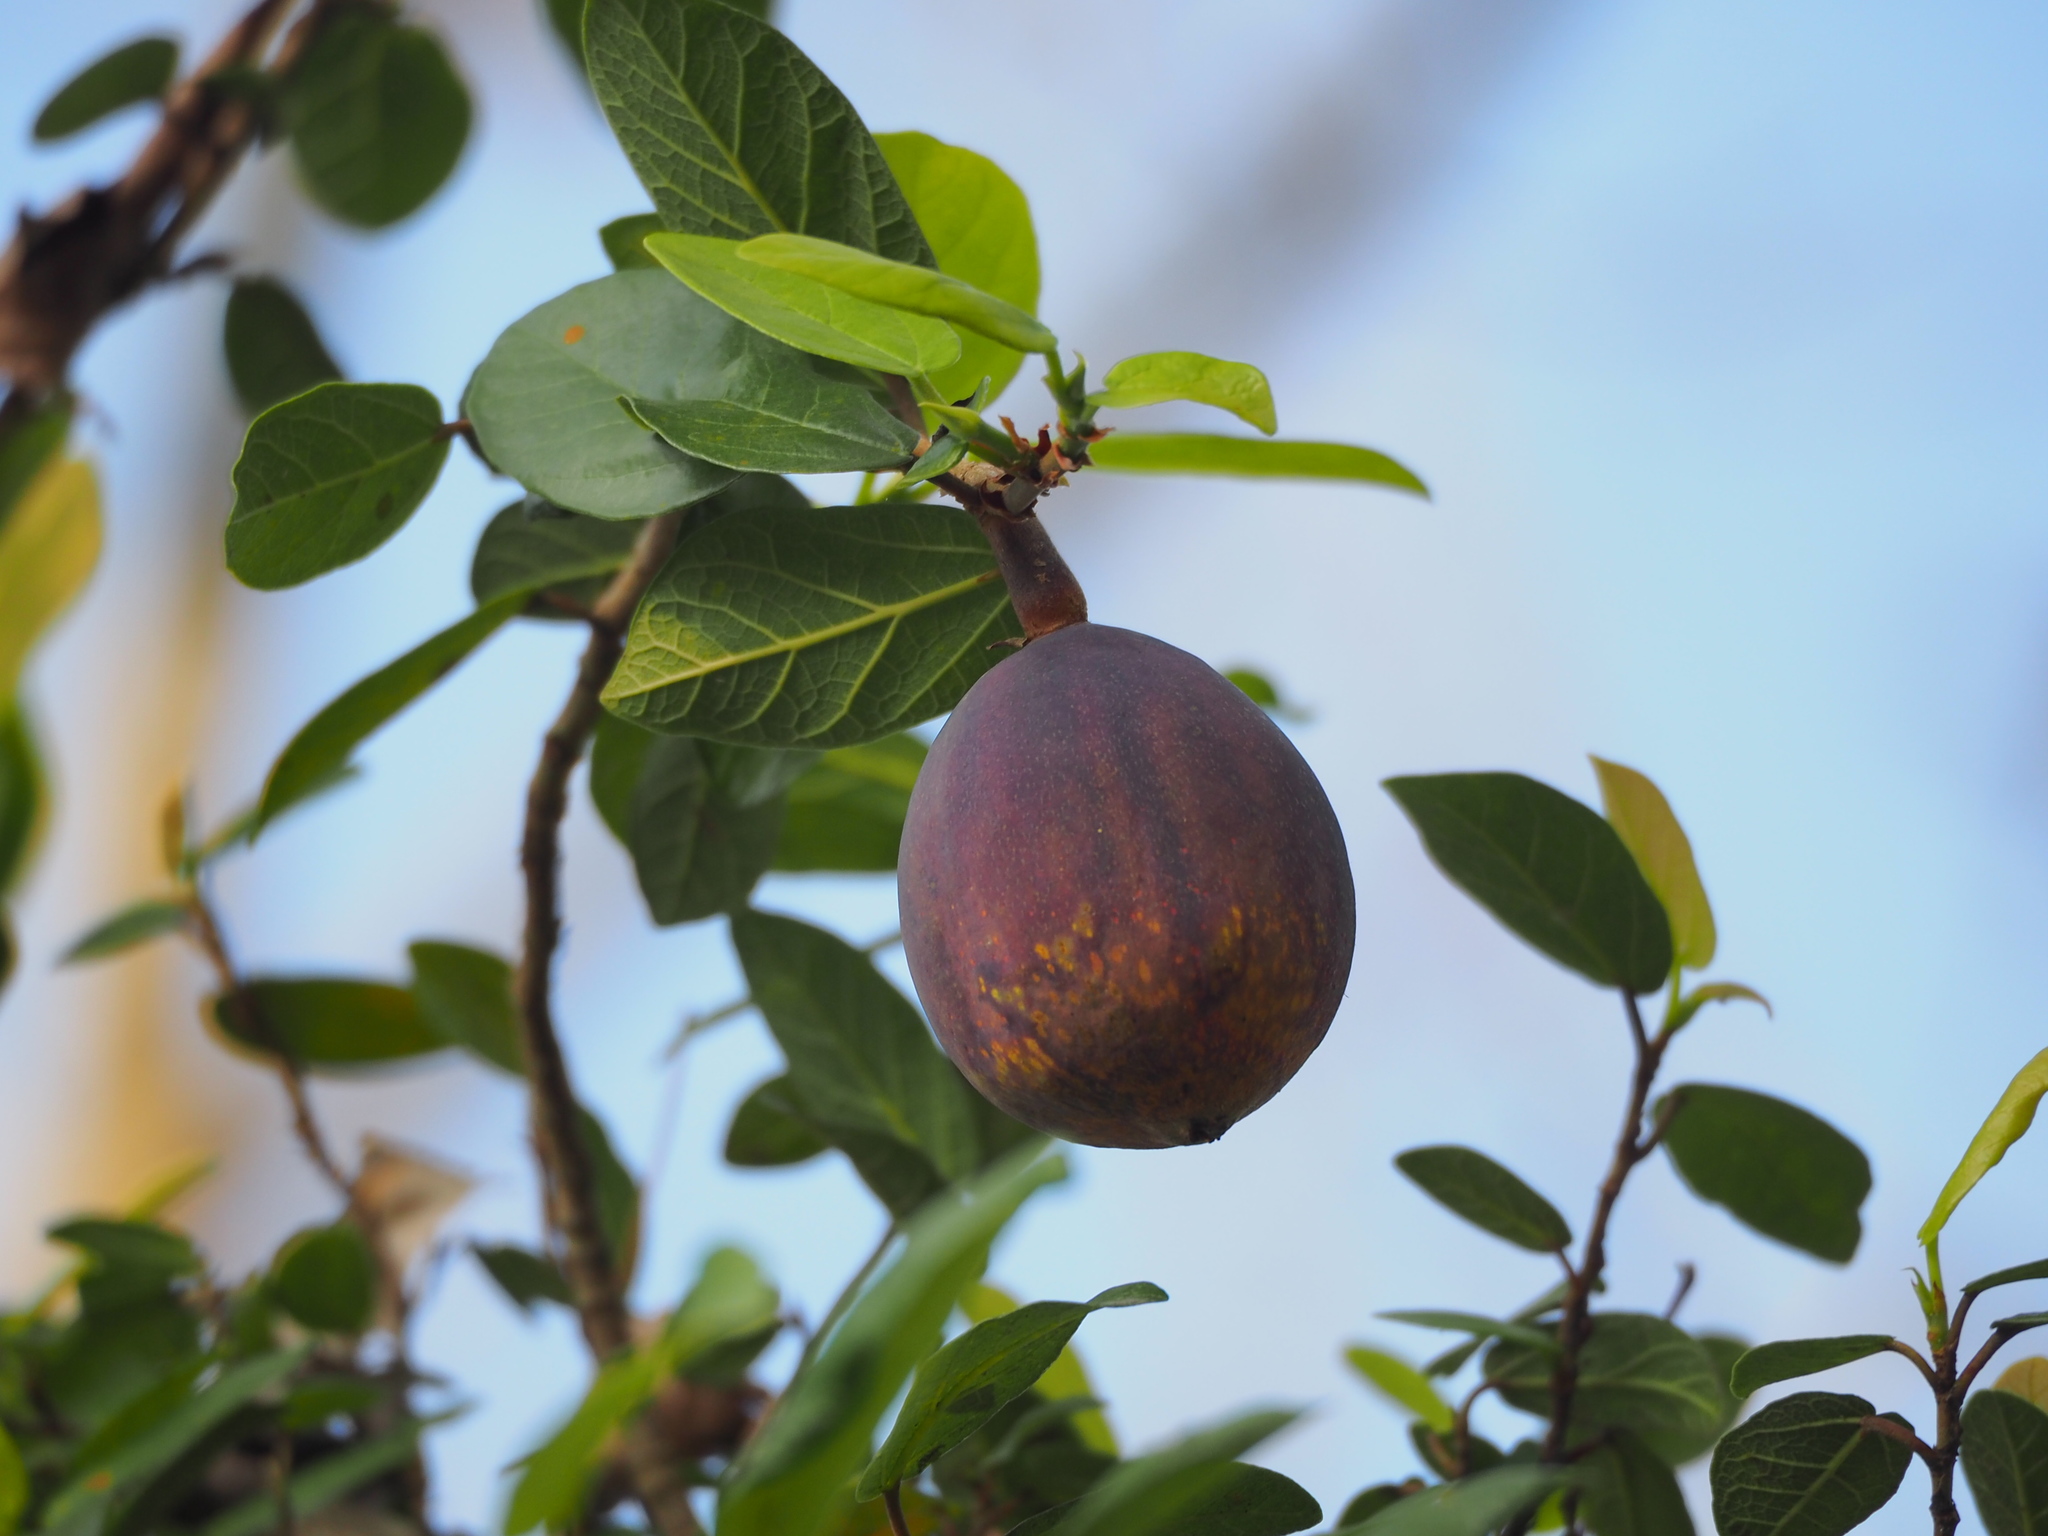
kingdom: Plantae
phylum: Tracheophyta
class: Magnoliopsida
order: Rosales
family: Moraceae
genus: Ficus
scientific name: Ficus pumila
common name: Climbingfig
